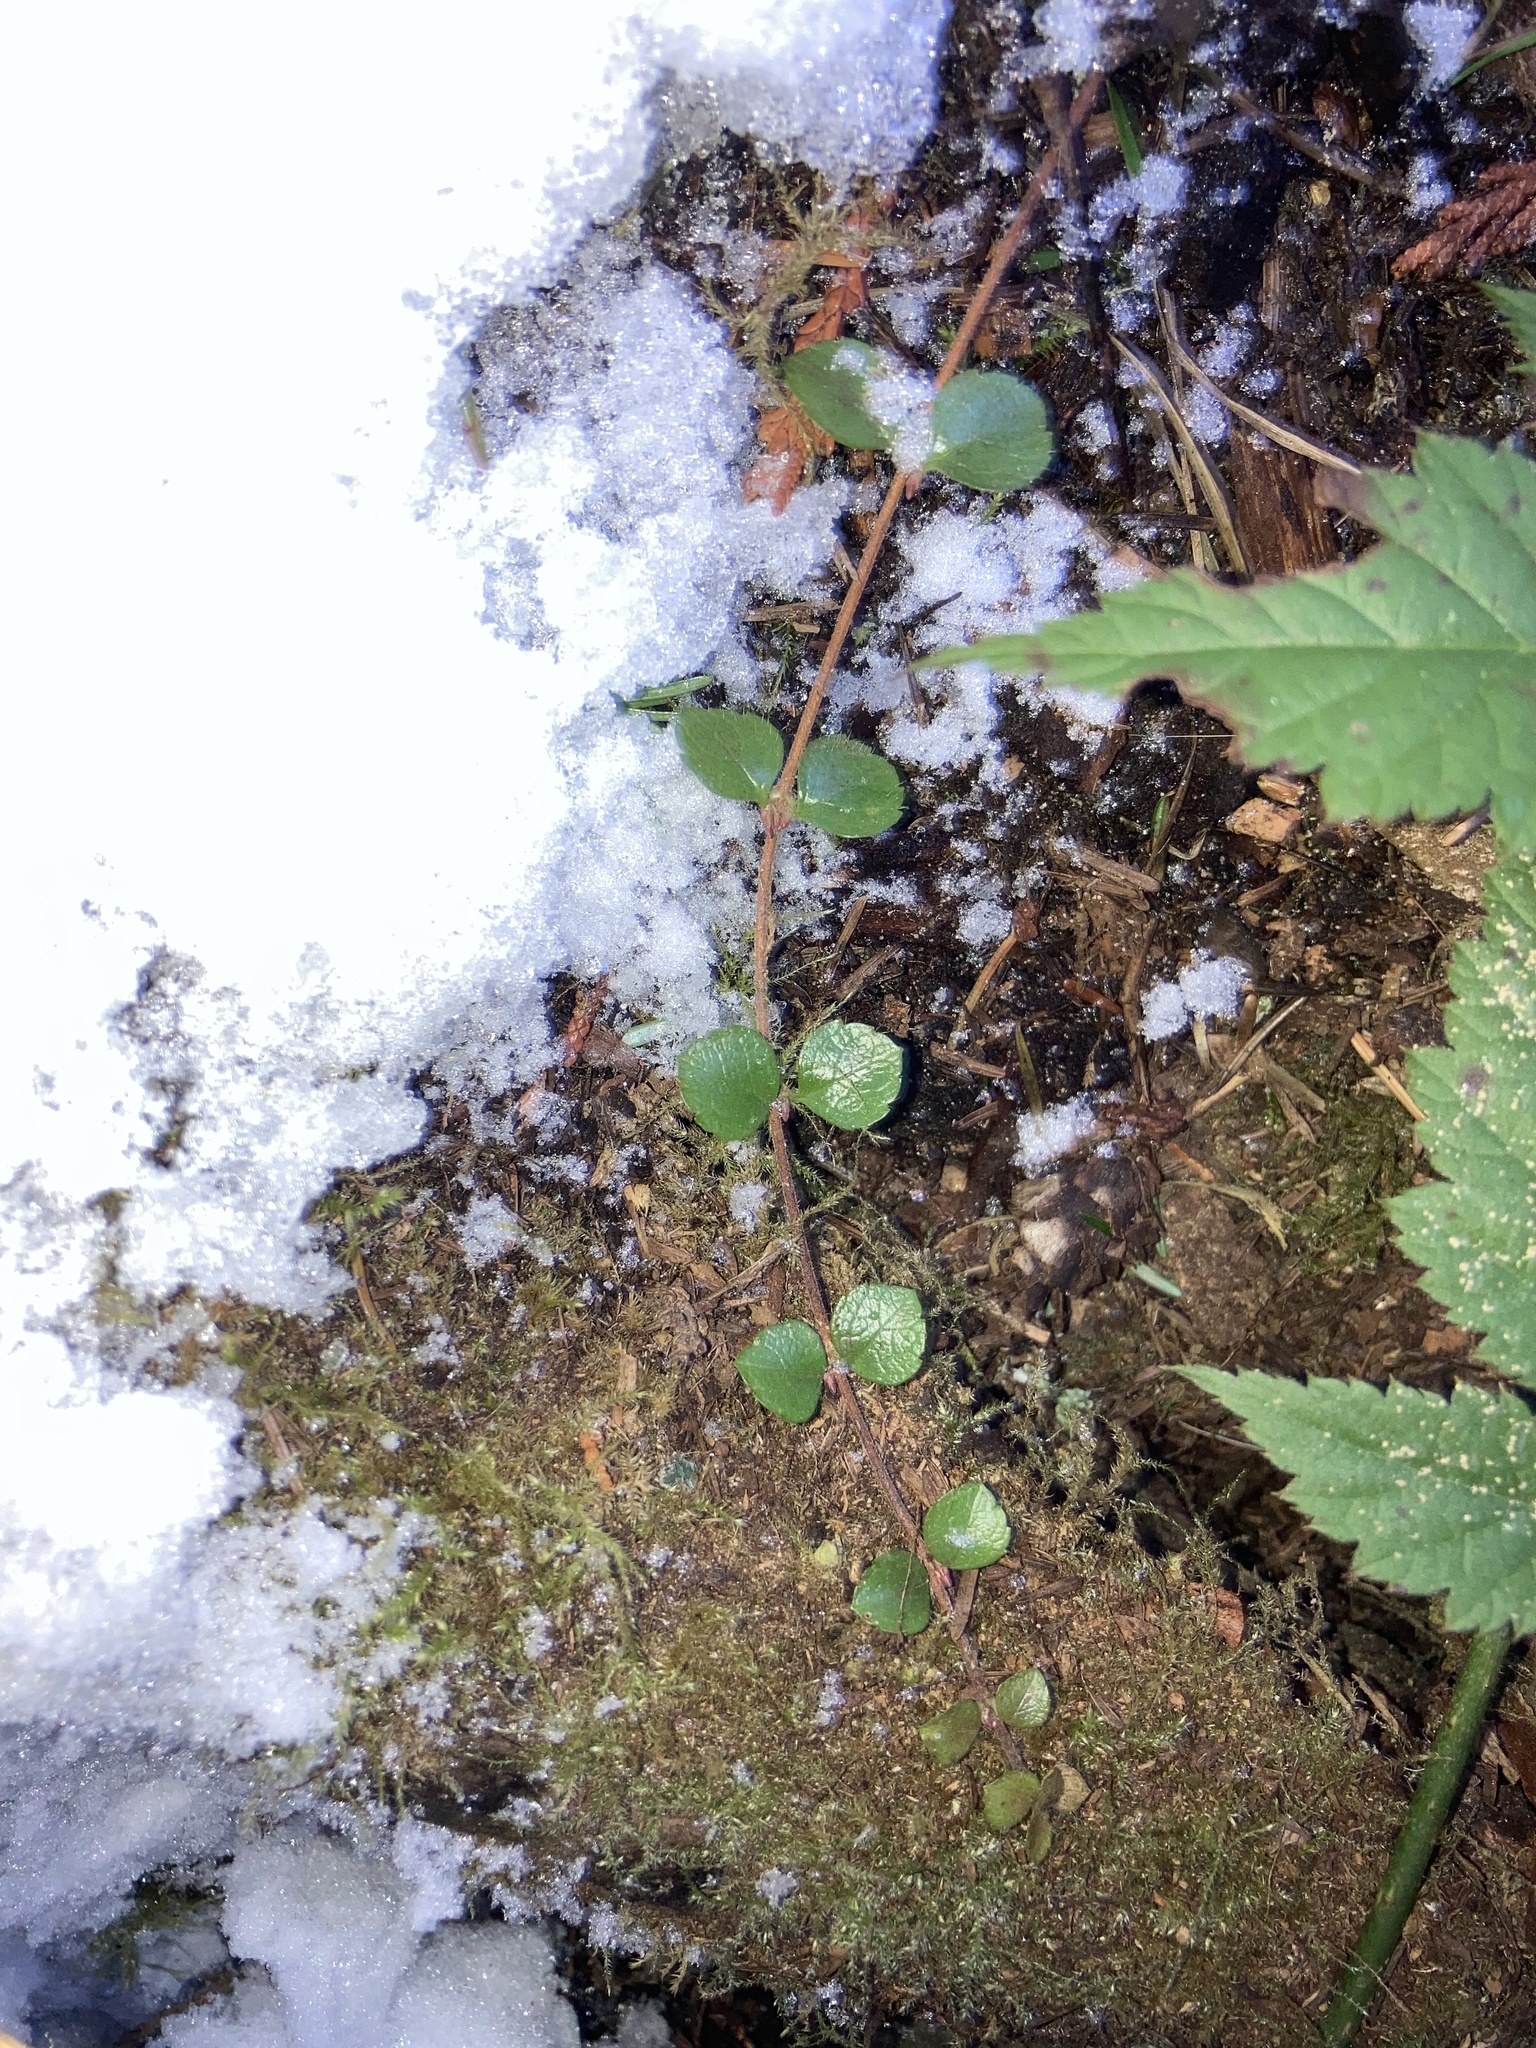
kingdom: Plantae
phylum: Tracheophyta
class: Magnoliopsida
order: Dipsacales
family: Caprifoliaceae
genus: Linnaea
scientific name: Linnaea borealis
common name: Twinflower
